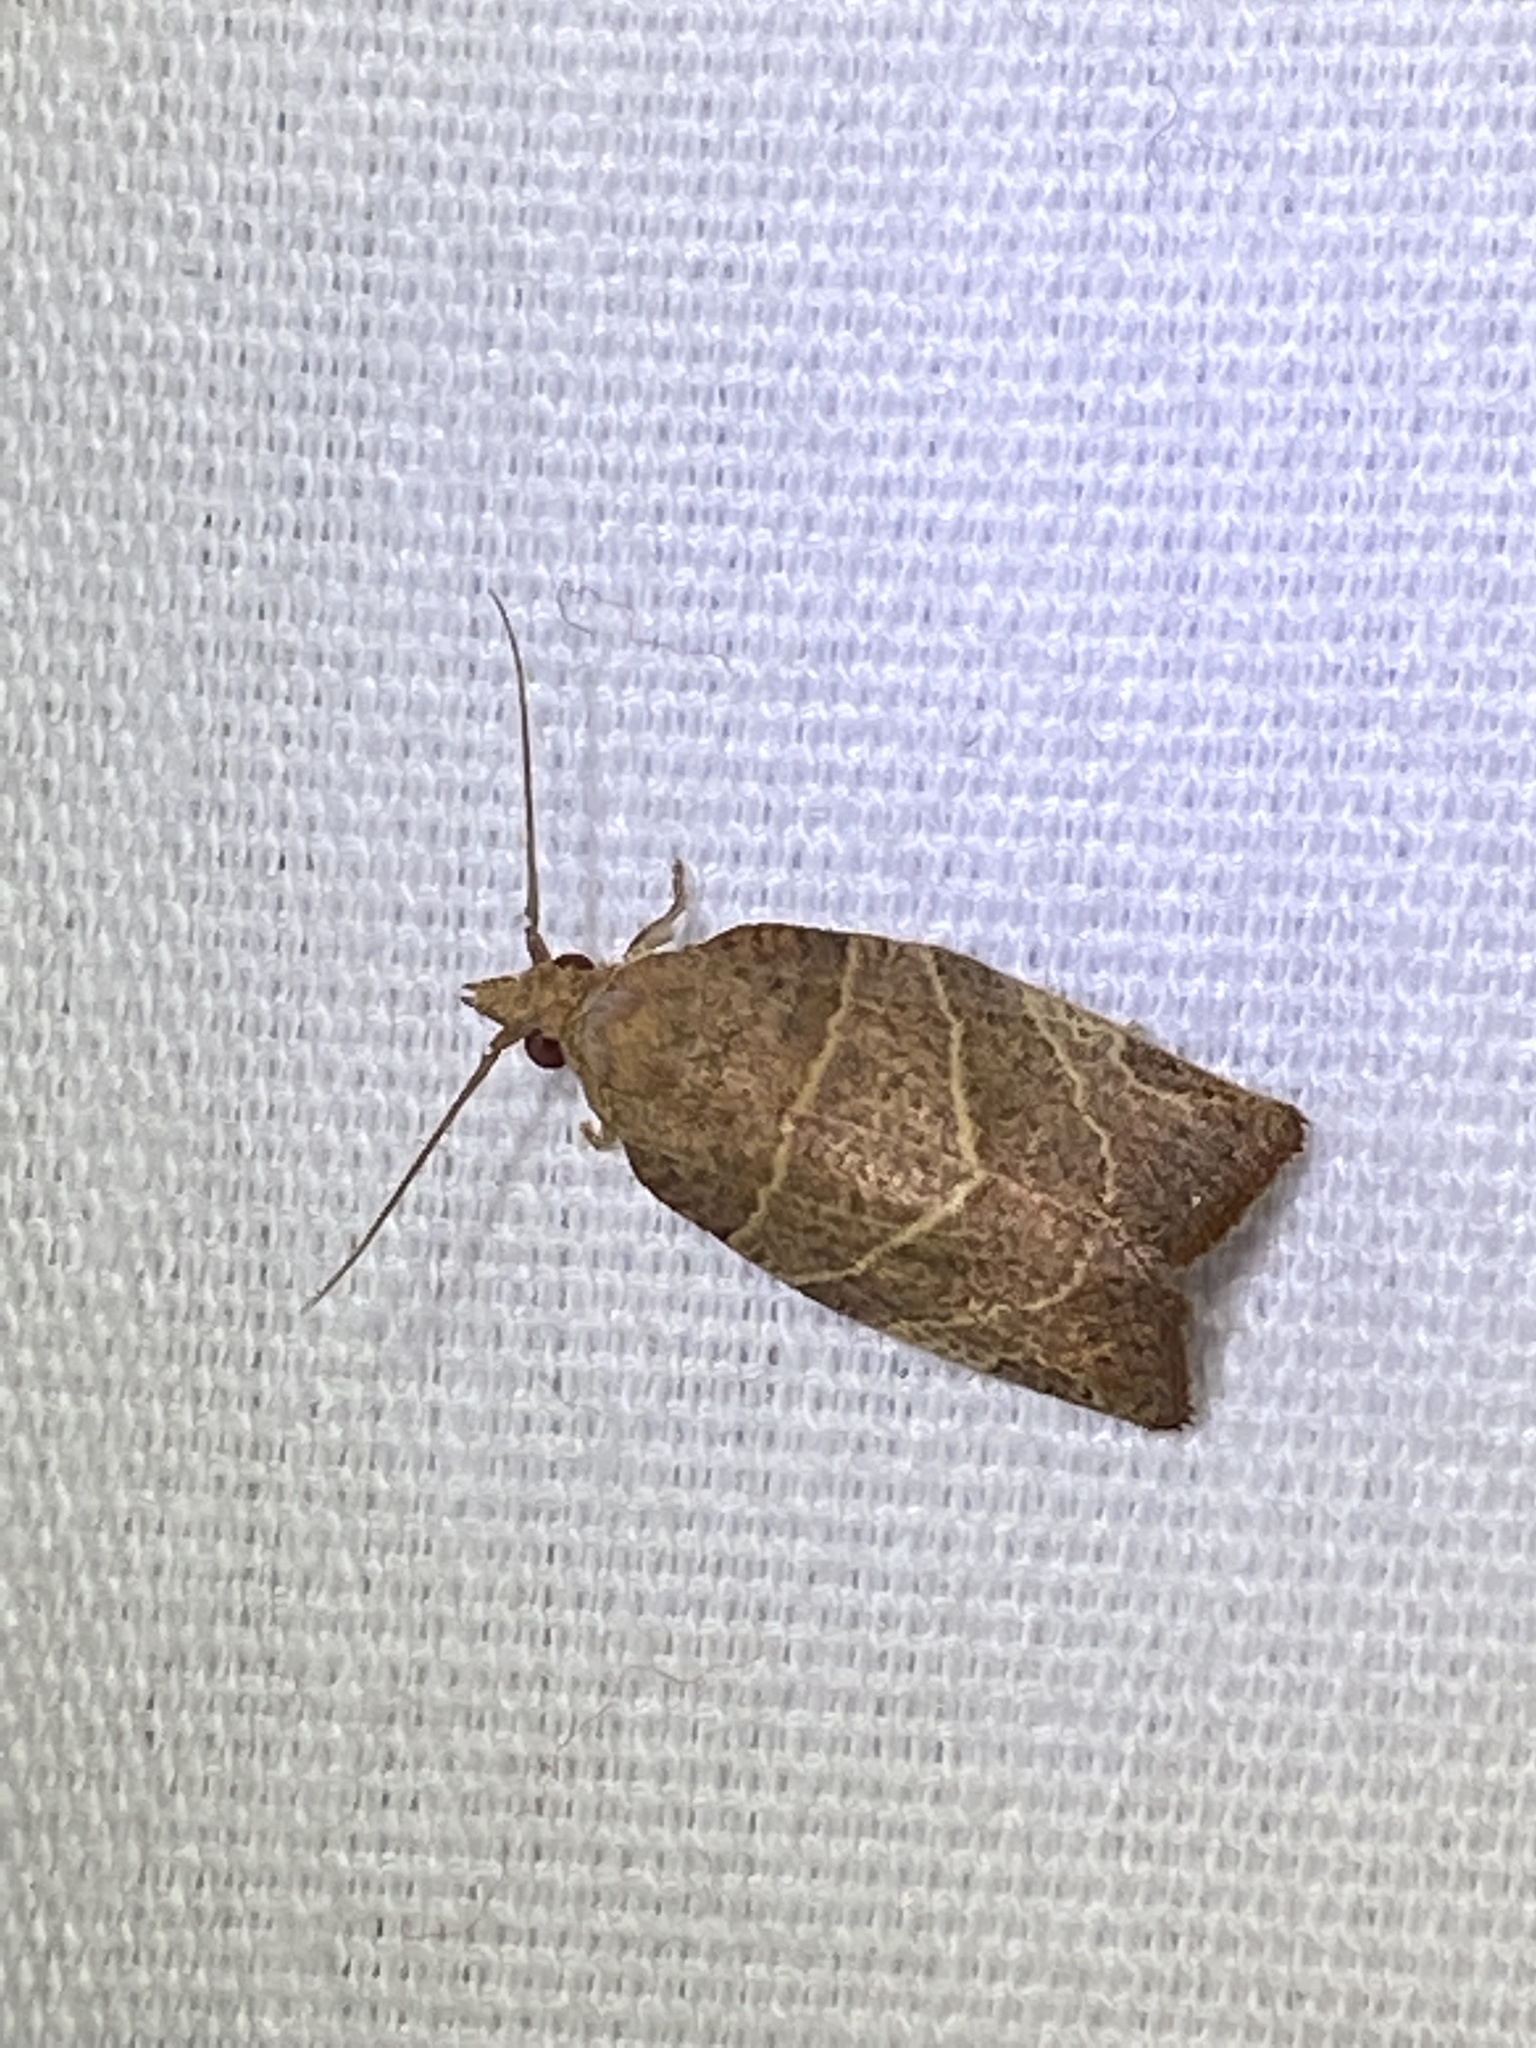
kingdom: Animalia
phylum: Arthropoda
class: Insecta
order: Lepidoptera
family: Tortricidae
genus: Pandemis
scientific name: Pandemis limitata
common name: Three-lined leafroller moth
